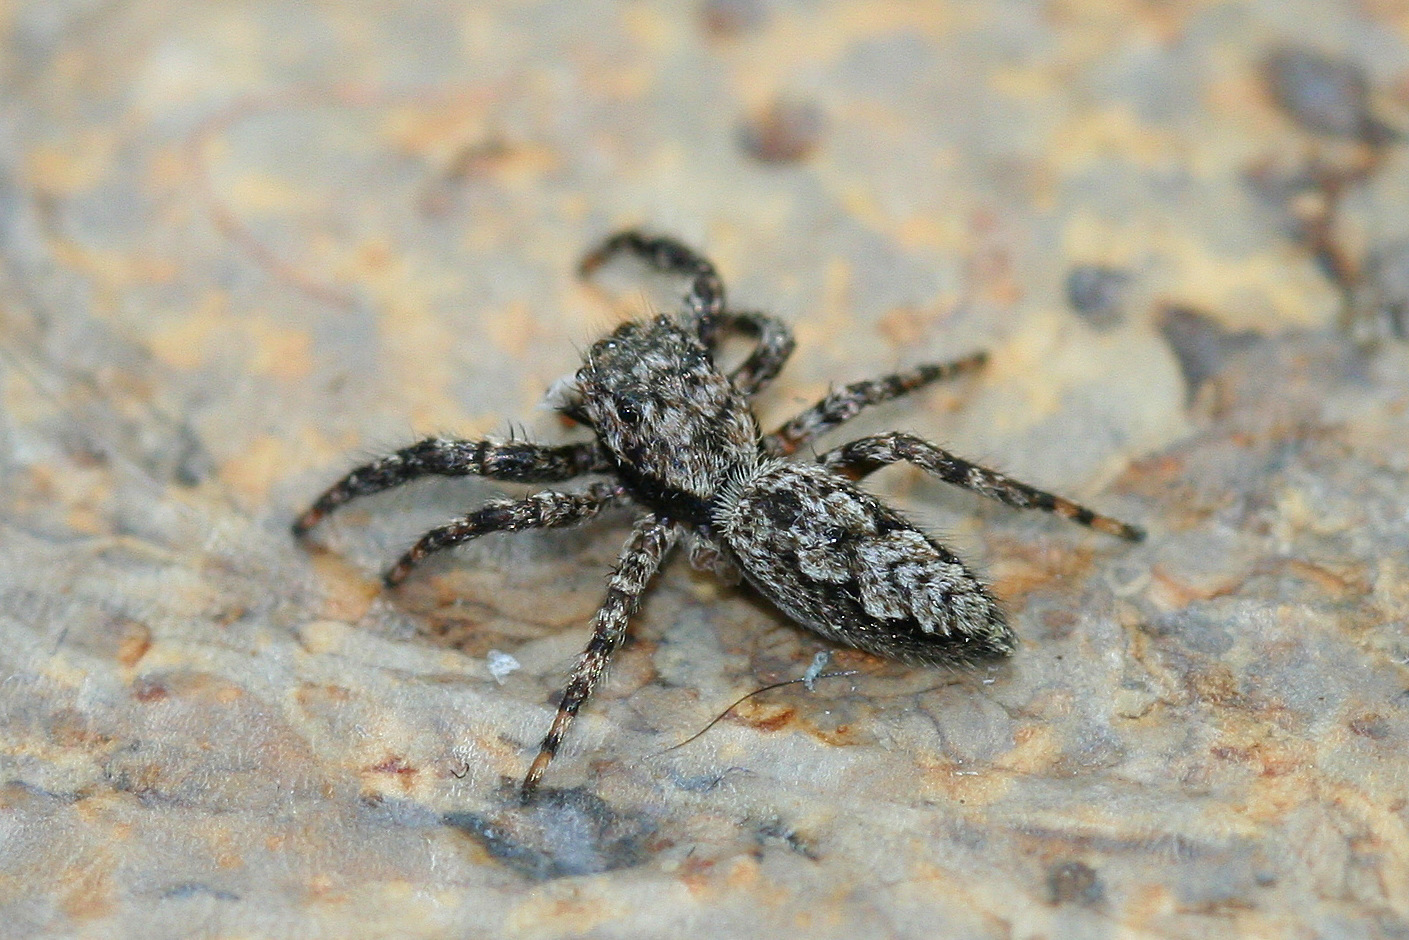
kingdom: Animalia
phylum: Arthropoda
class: Arachnida
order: Araneae
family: Salticidae
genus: Platycryptus
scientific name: Platycryptus undatus
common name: Tan jumping spider
